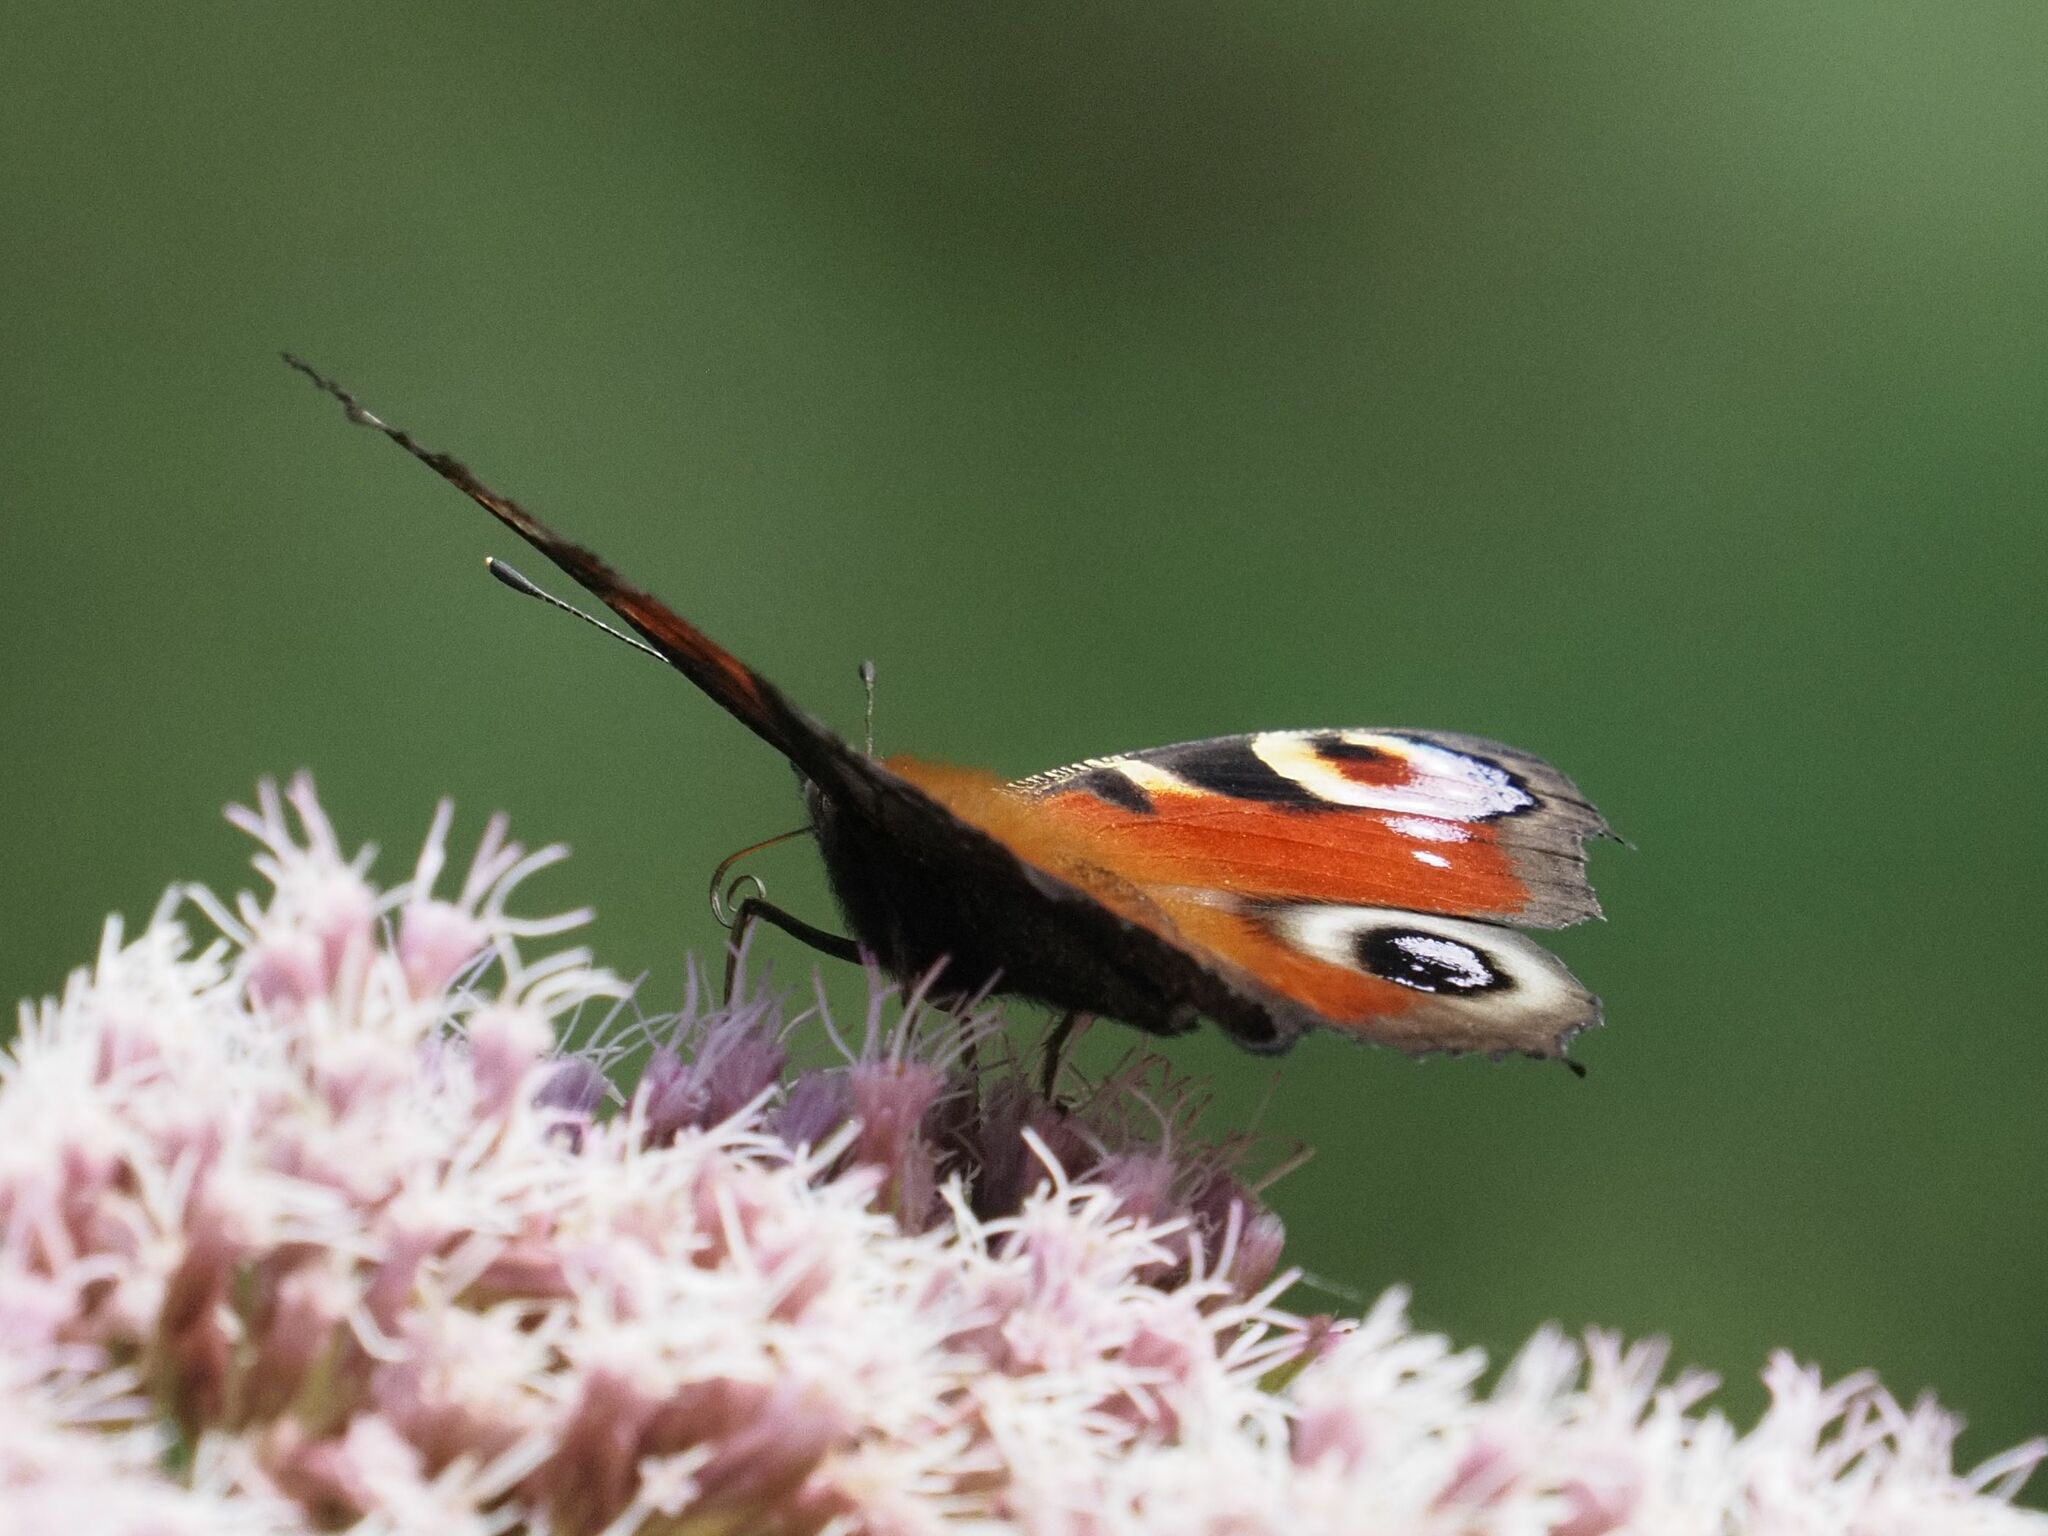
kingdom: Animalia
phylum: Arthropoda
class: Insecta
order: Lepidoptera
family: Nymphalidae
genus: Aglais
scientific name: Aglais io
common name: Peacock
